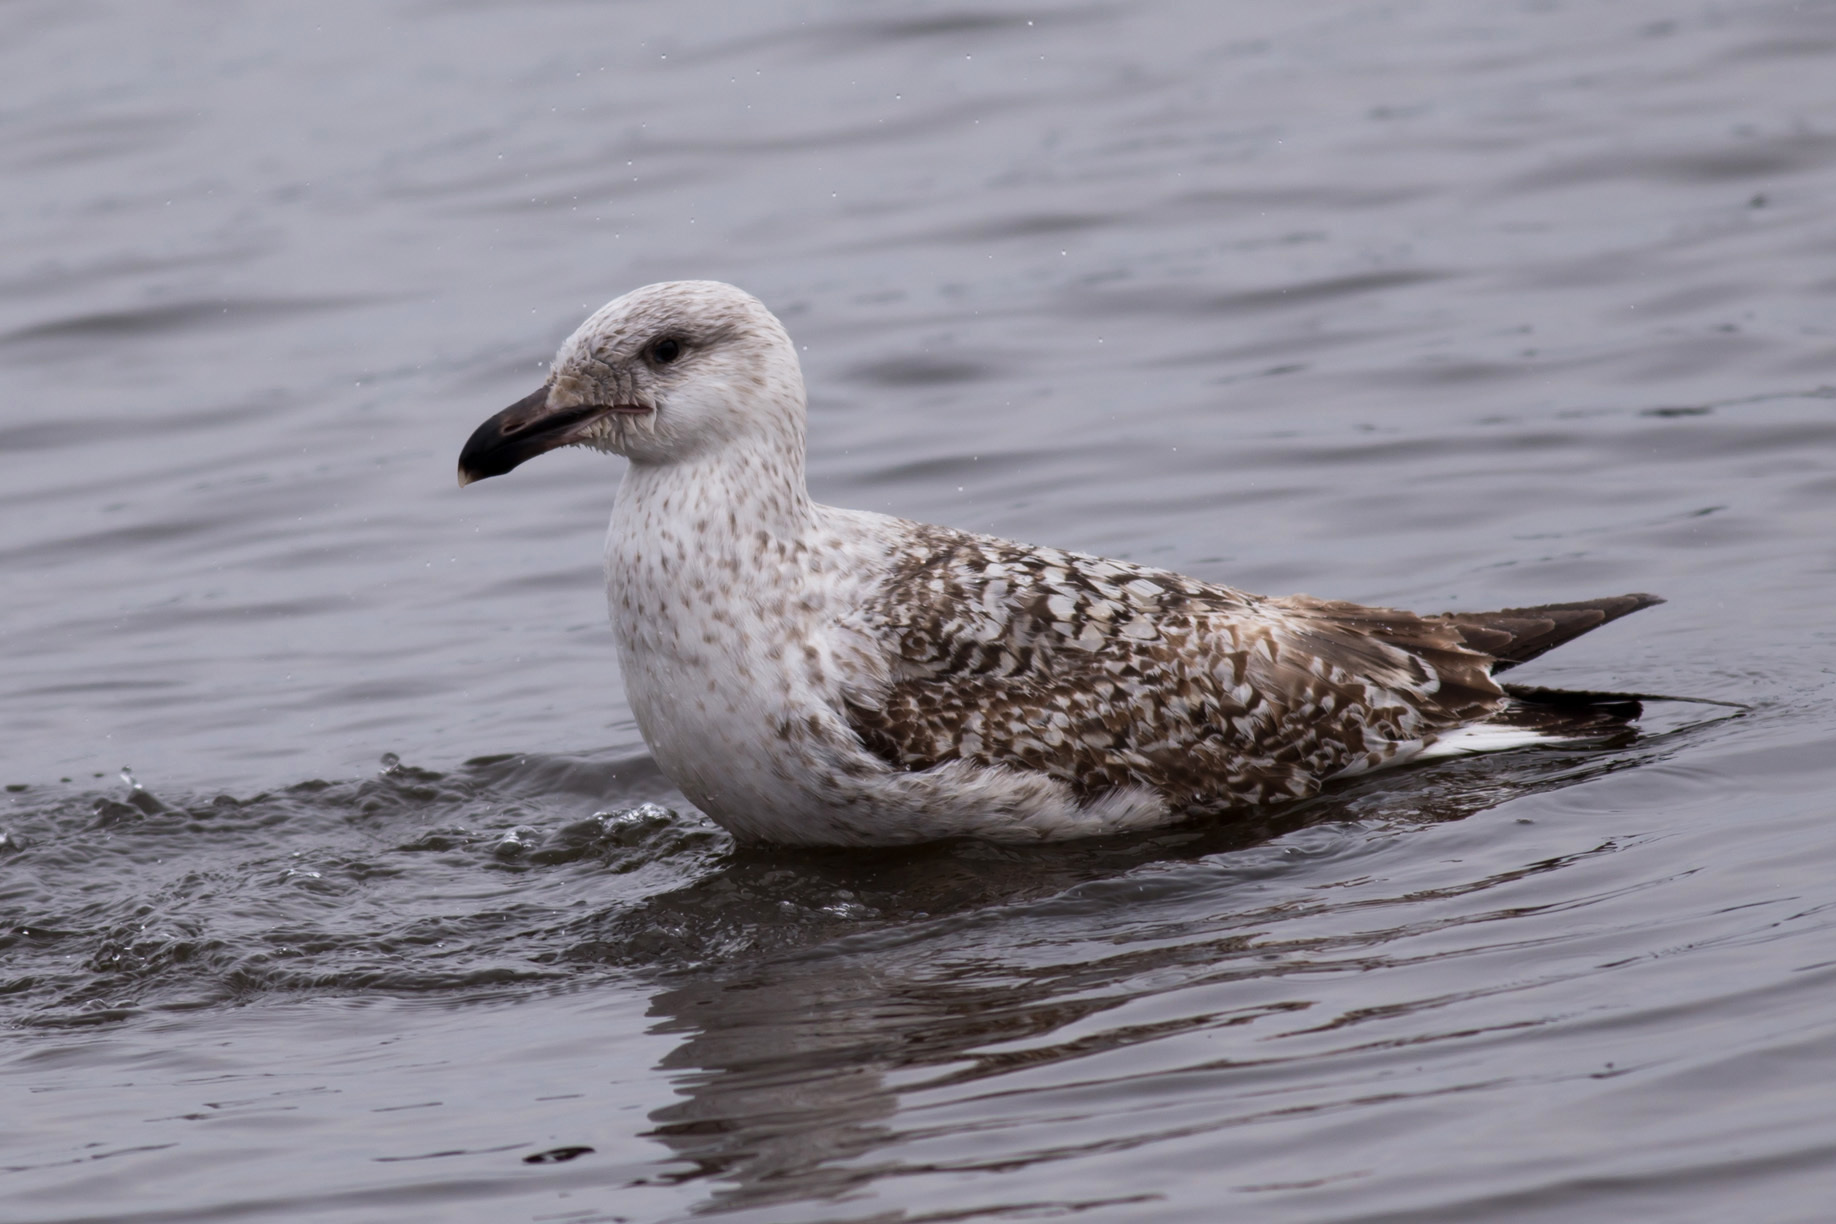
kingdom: Animalia
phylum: Chordata
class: Aves
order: Charadriiformes
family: Laridae
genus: Larus
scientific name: Larus marinus
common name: Great black-backed gull
